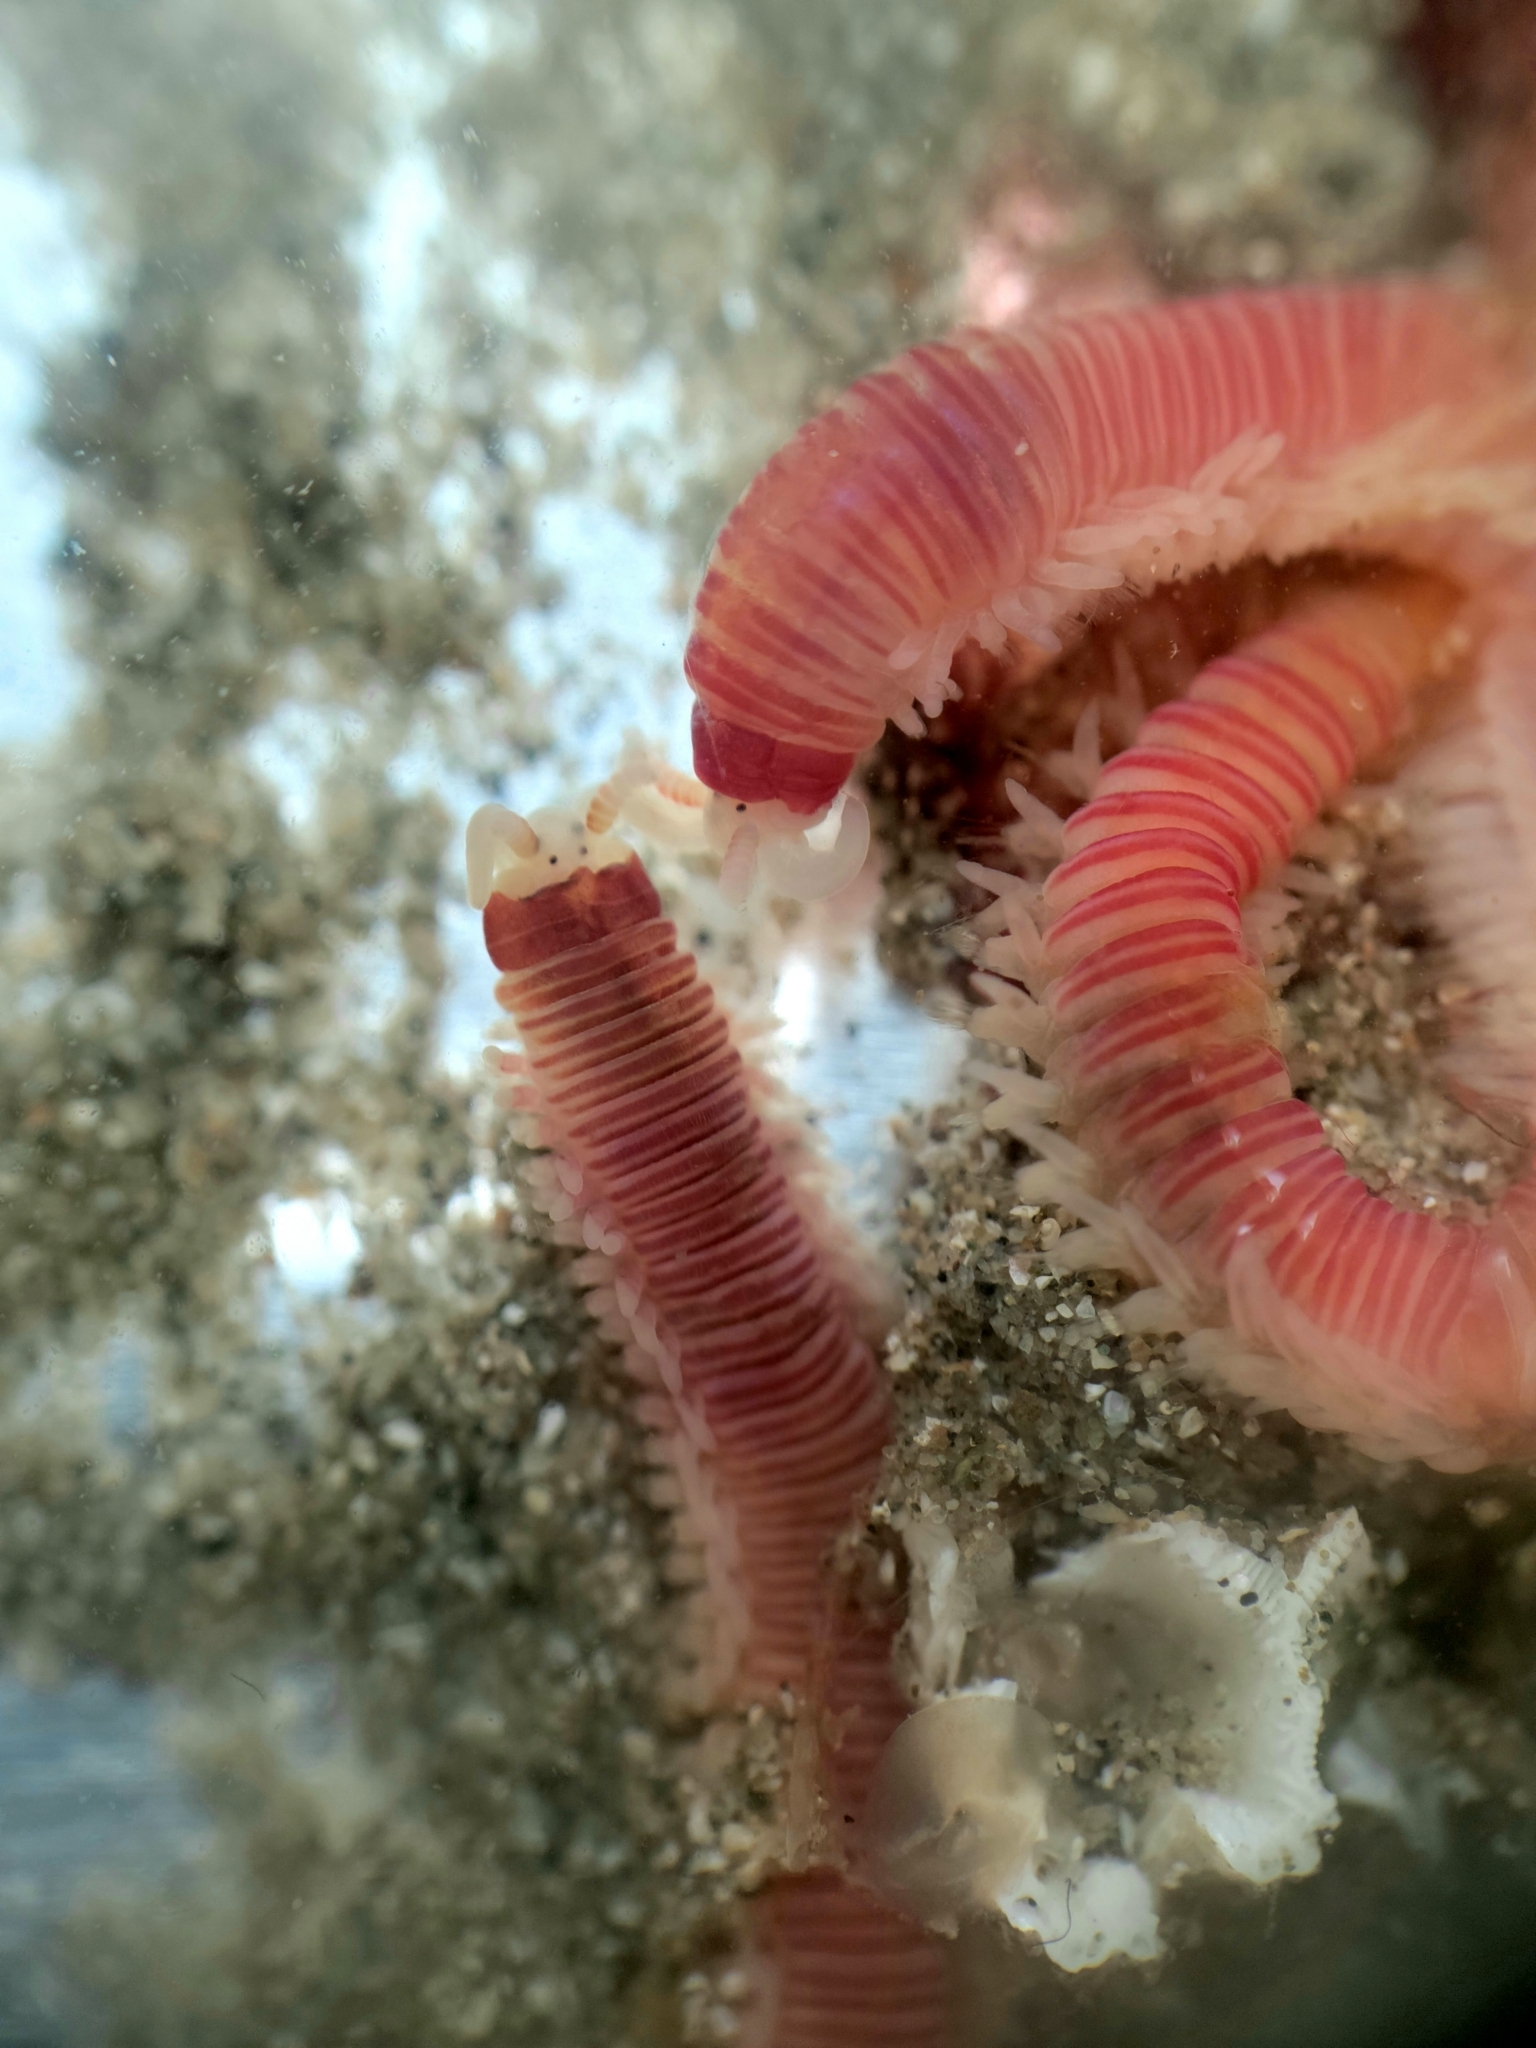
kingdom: Animalia
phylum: Annelida
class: Polychaeta
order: Eunicida
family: Dorvilleidae
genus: Dorvillea
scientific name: Dorvillea moniloceras
